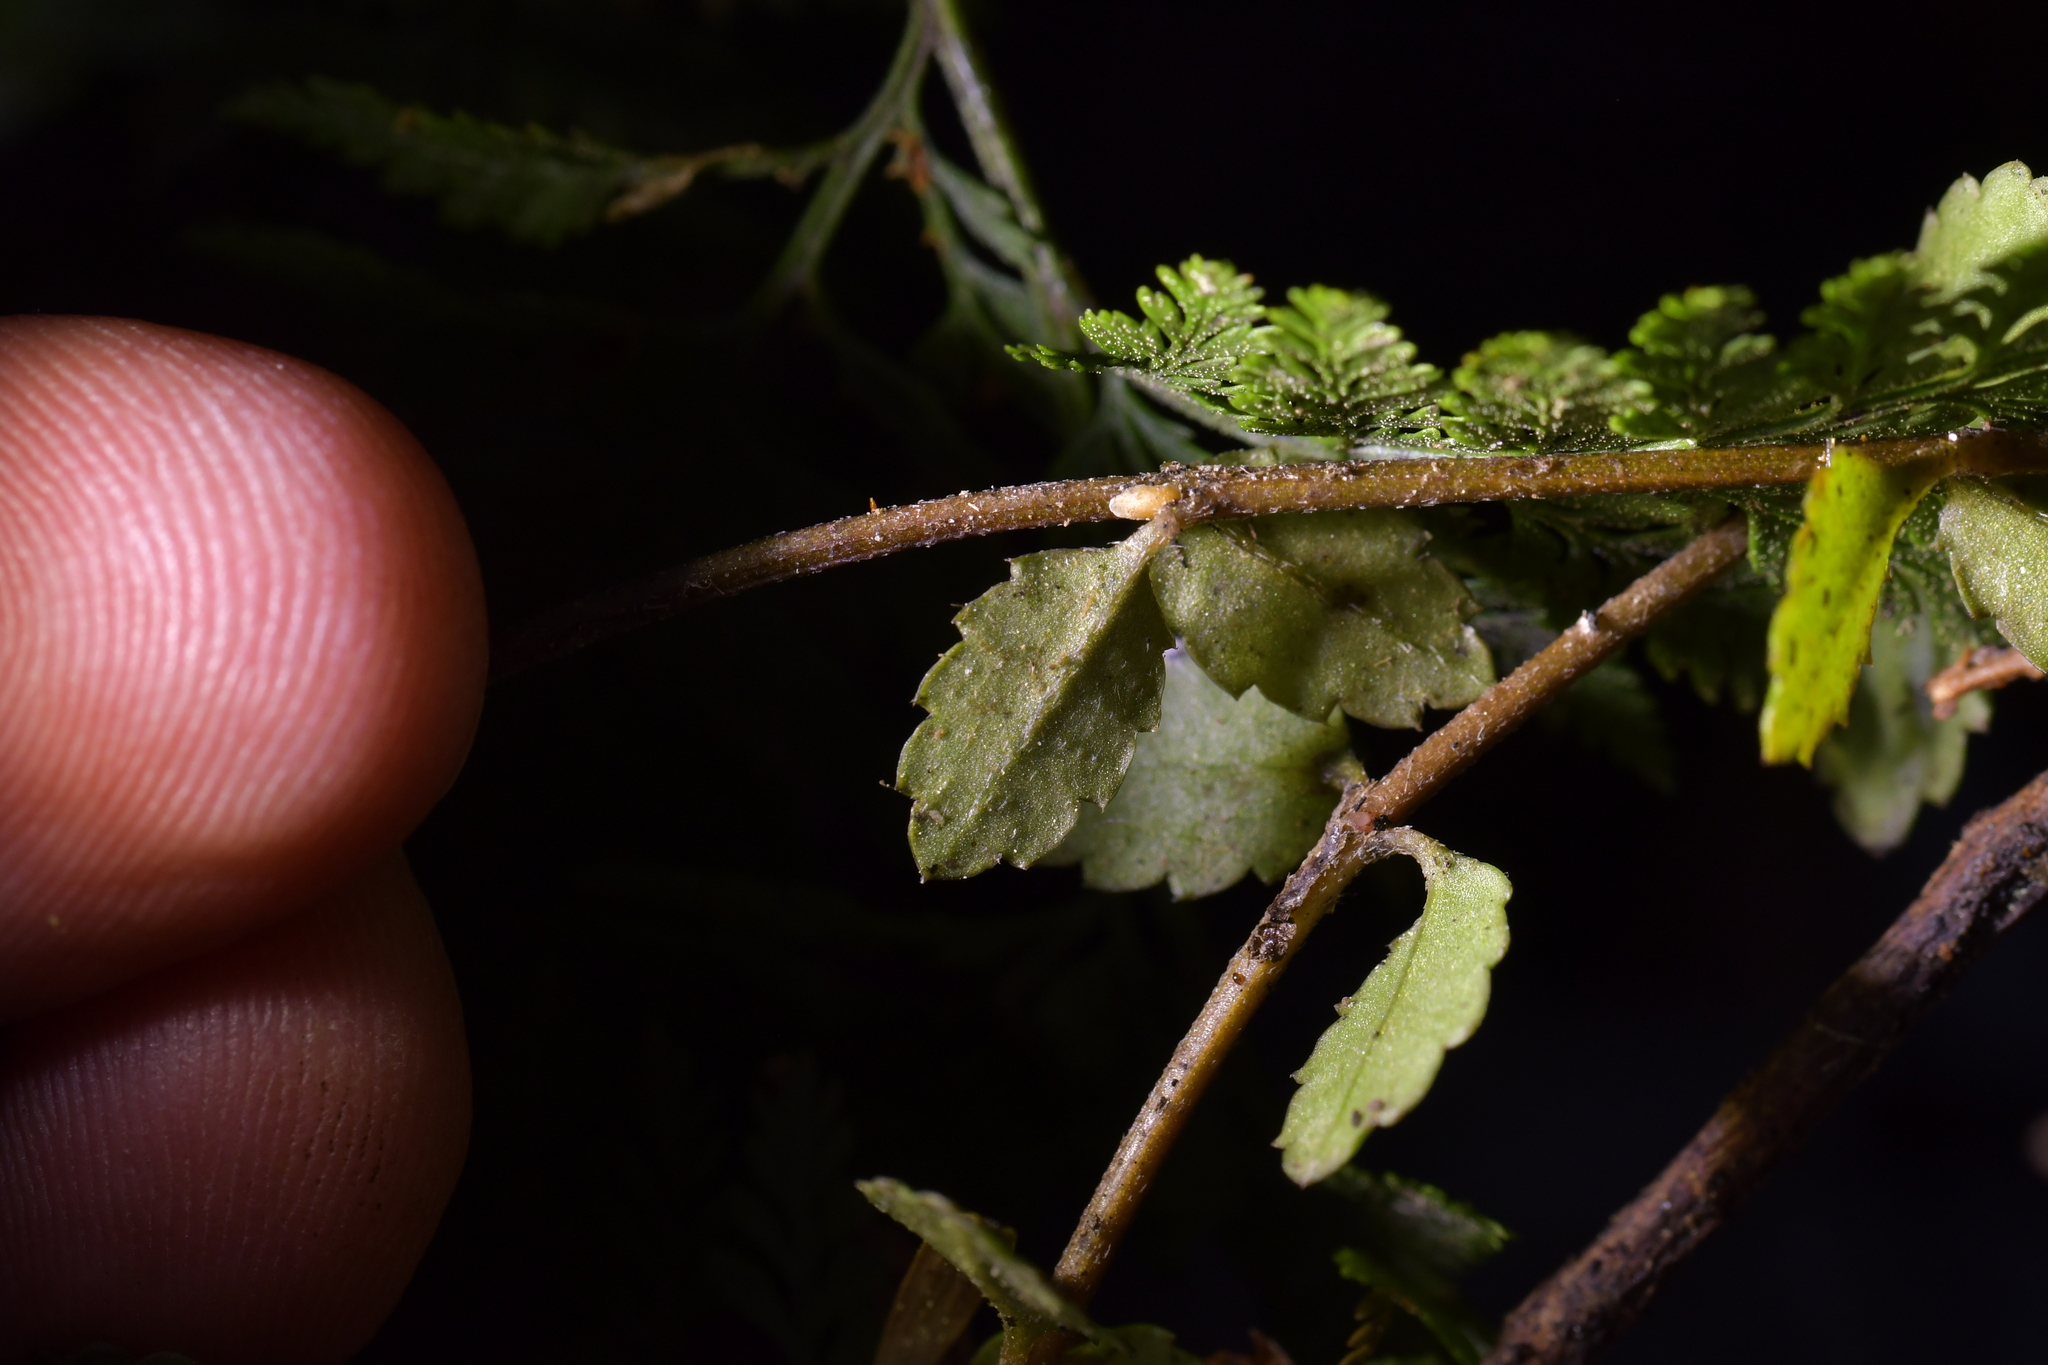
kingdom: Plantae
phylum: Tracheophyta
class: Magnoliopsida
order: Saxifragales
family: Haloragaceae
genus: Gonocarpus
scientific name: Gonocarpus incanus
